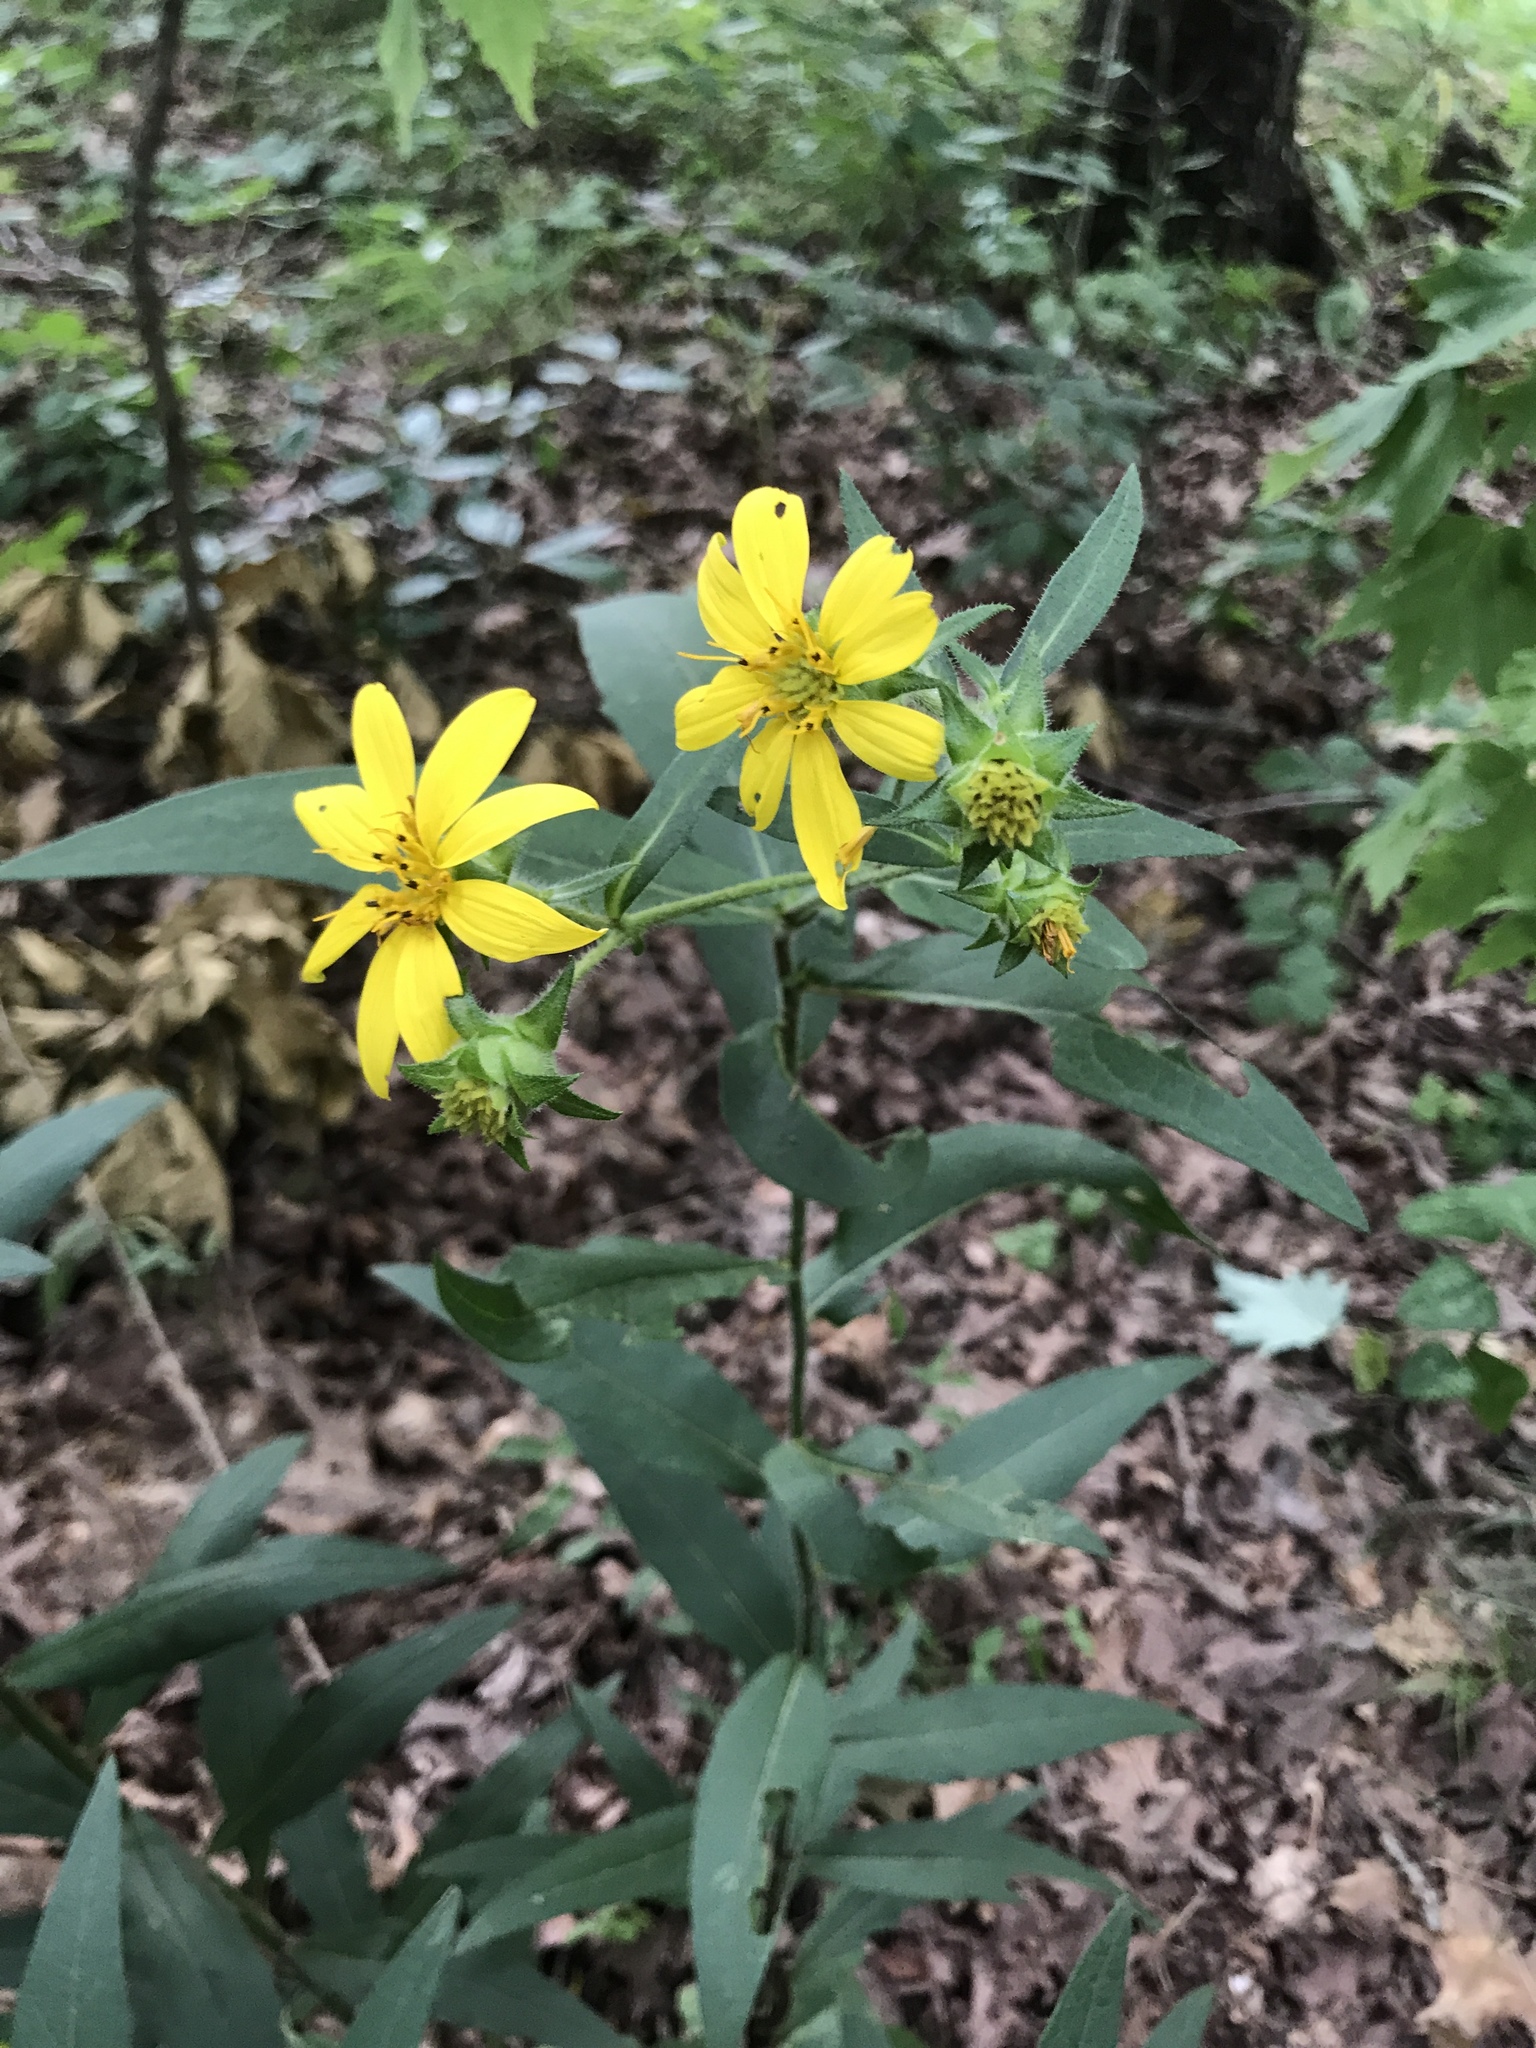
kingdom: Plantae
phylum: Tracheophyta
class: Magnoliopsida
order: Asterales
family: Asteraceae
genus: Silphium
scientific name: Silphium asteriscus
